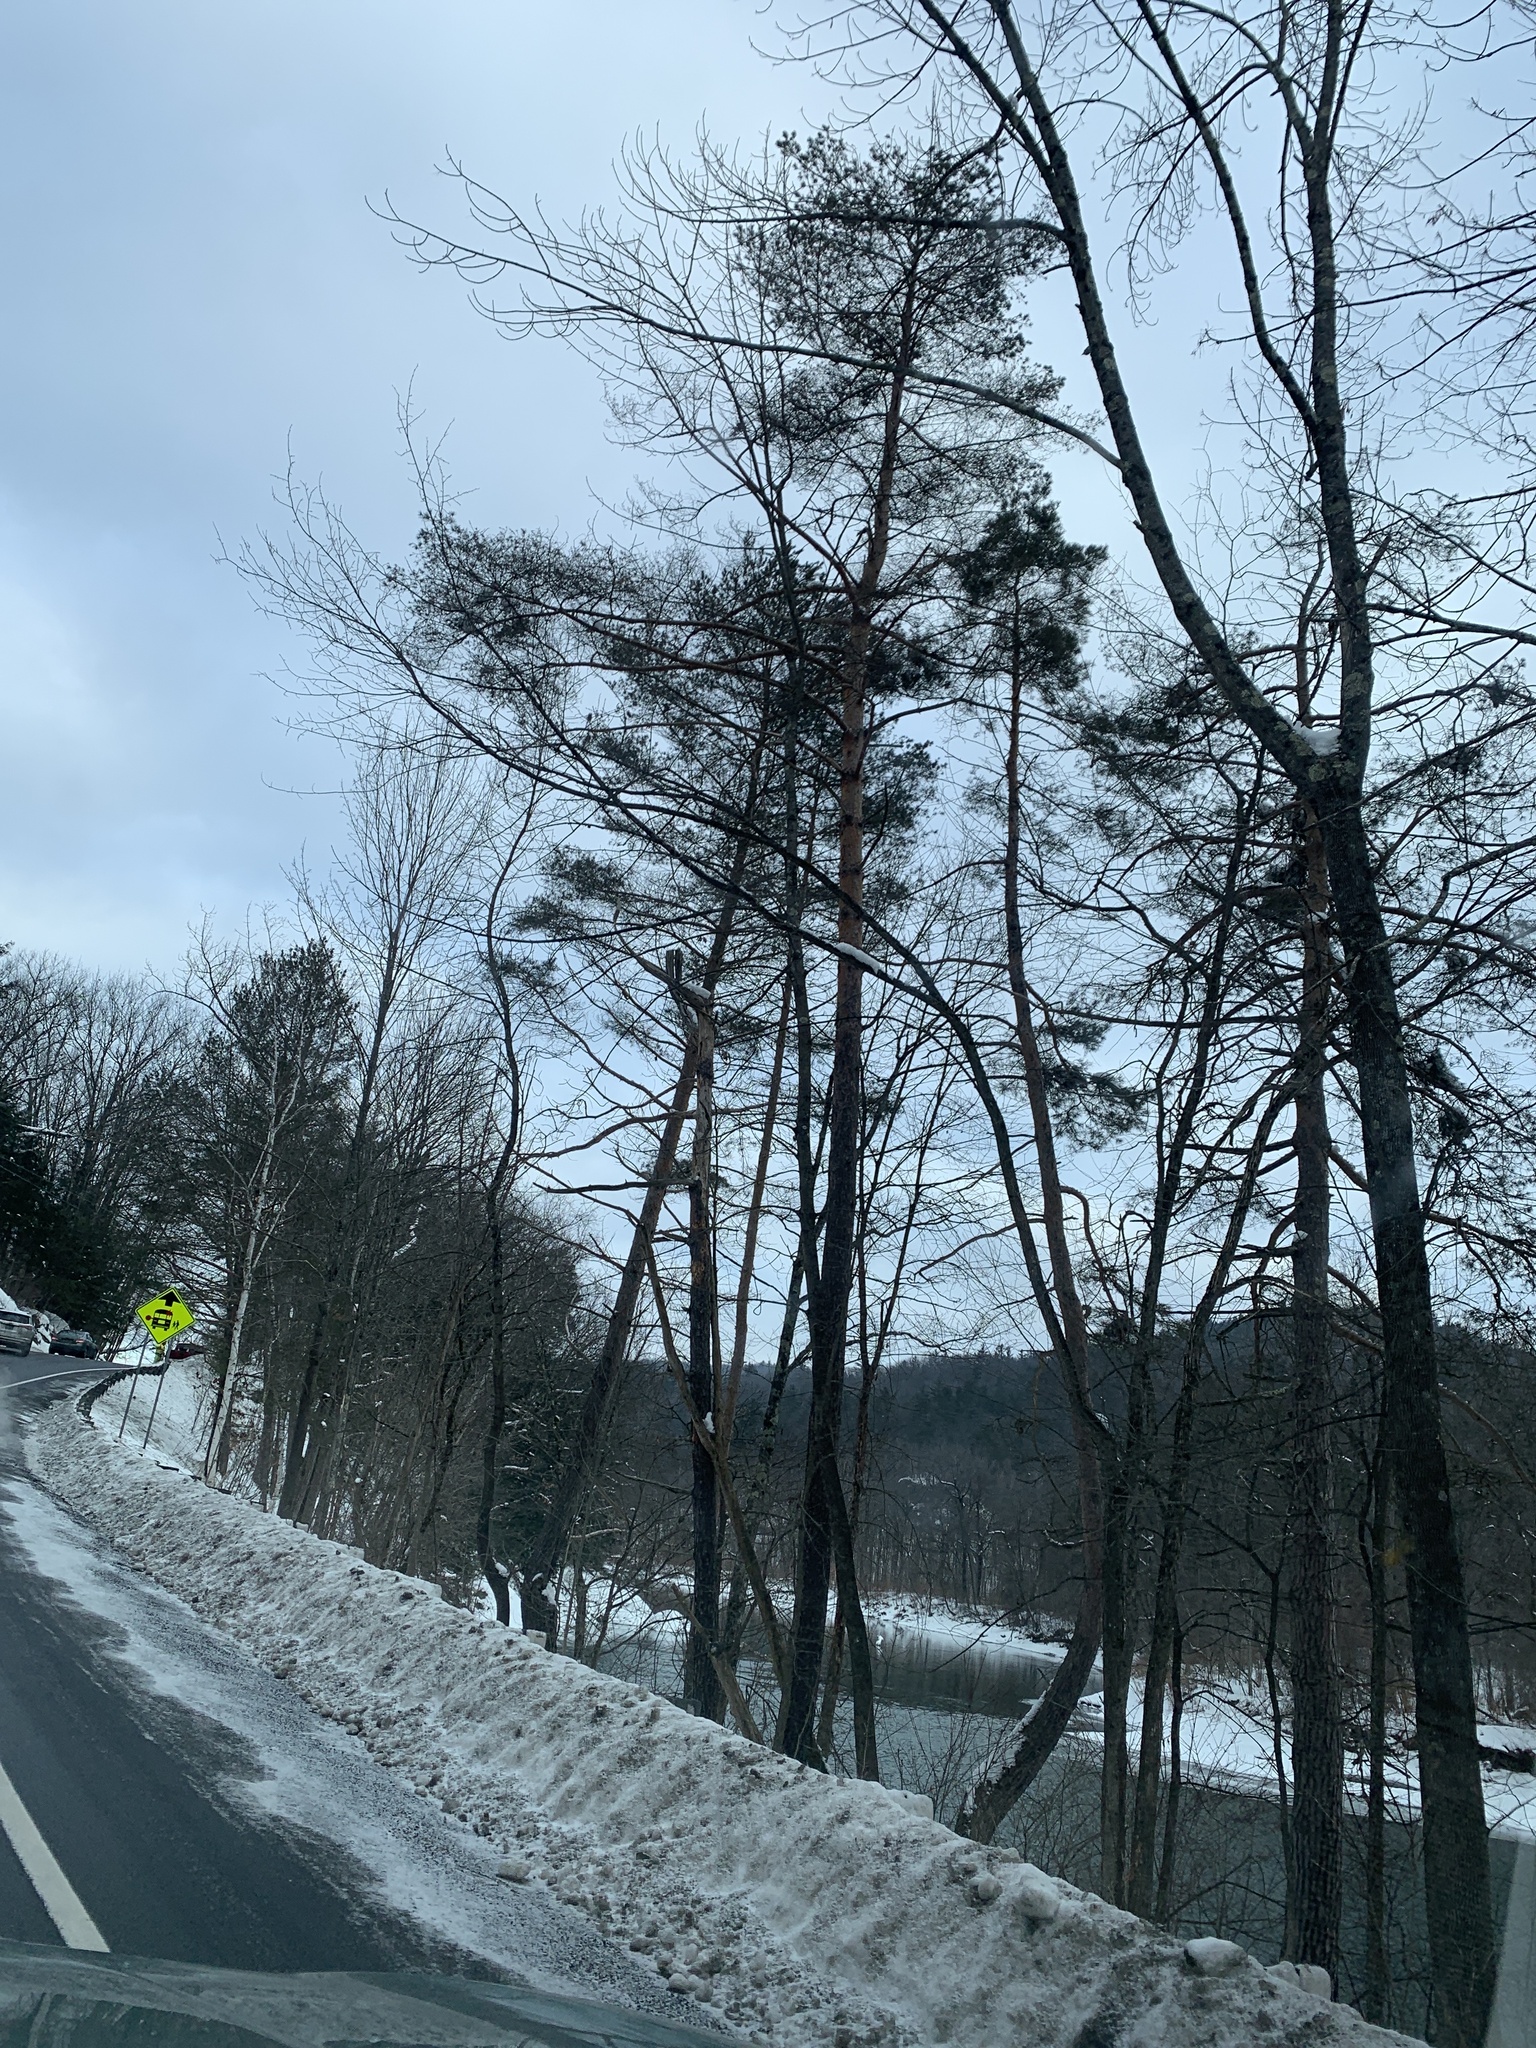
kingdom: Plantae
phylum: Tracheophyta
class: Pinopsida
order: Pinales
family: Pinaceae
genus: Pinus
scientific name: Pinus sylvestris
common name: Scots pine
